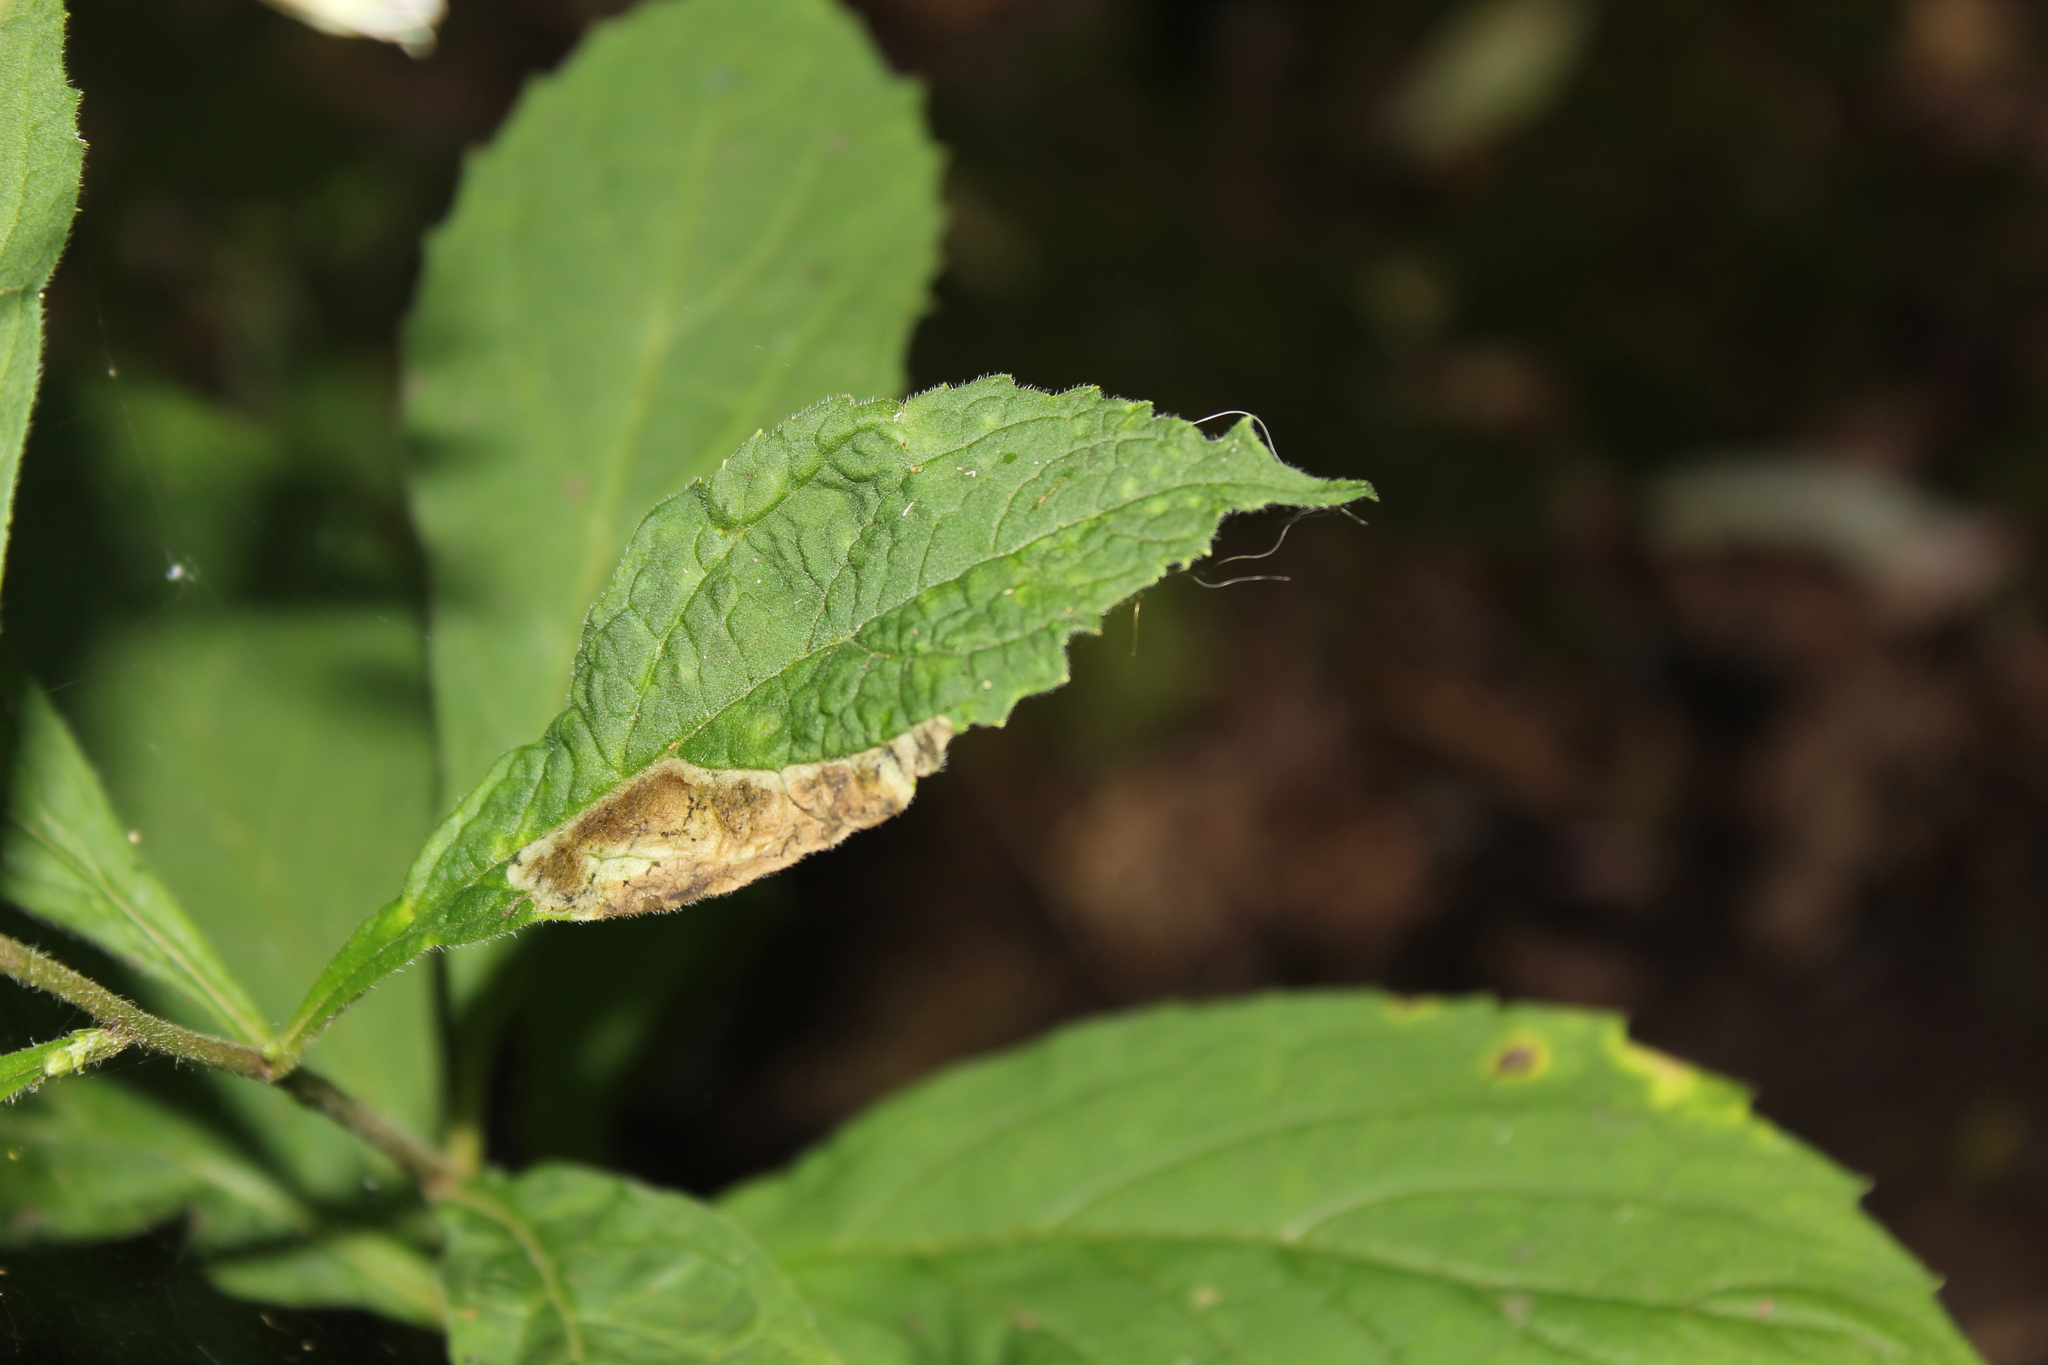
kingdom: Animalia
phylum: Arthropoda
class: Insecta
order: Diptera
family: Agromyzidae
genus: Liriomyza
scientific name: Liriomyza limopsis
